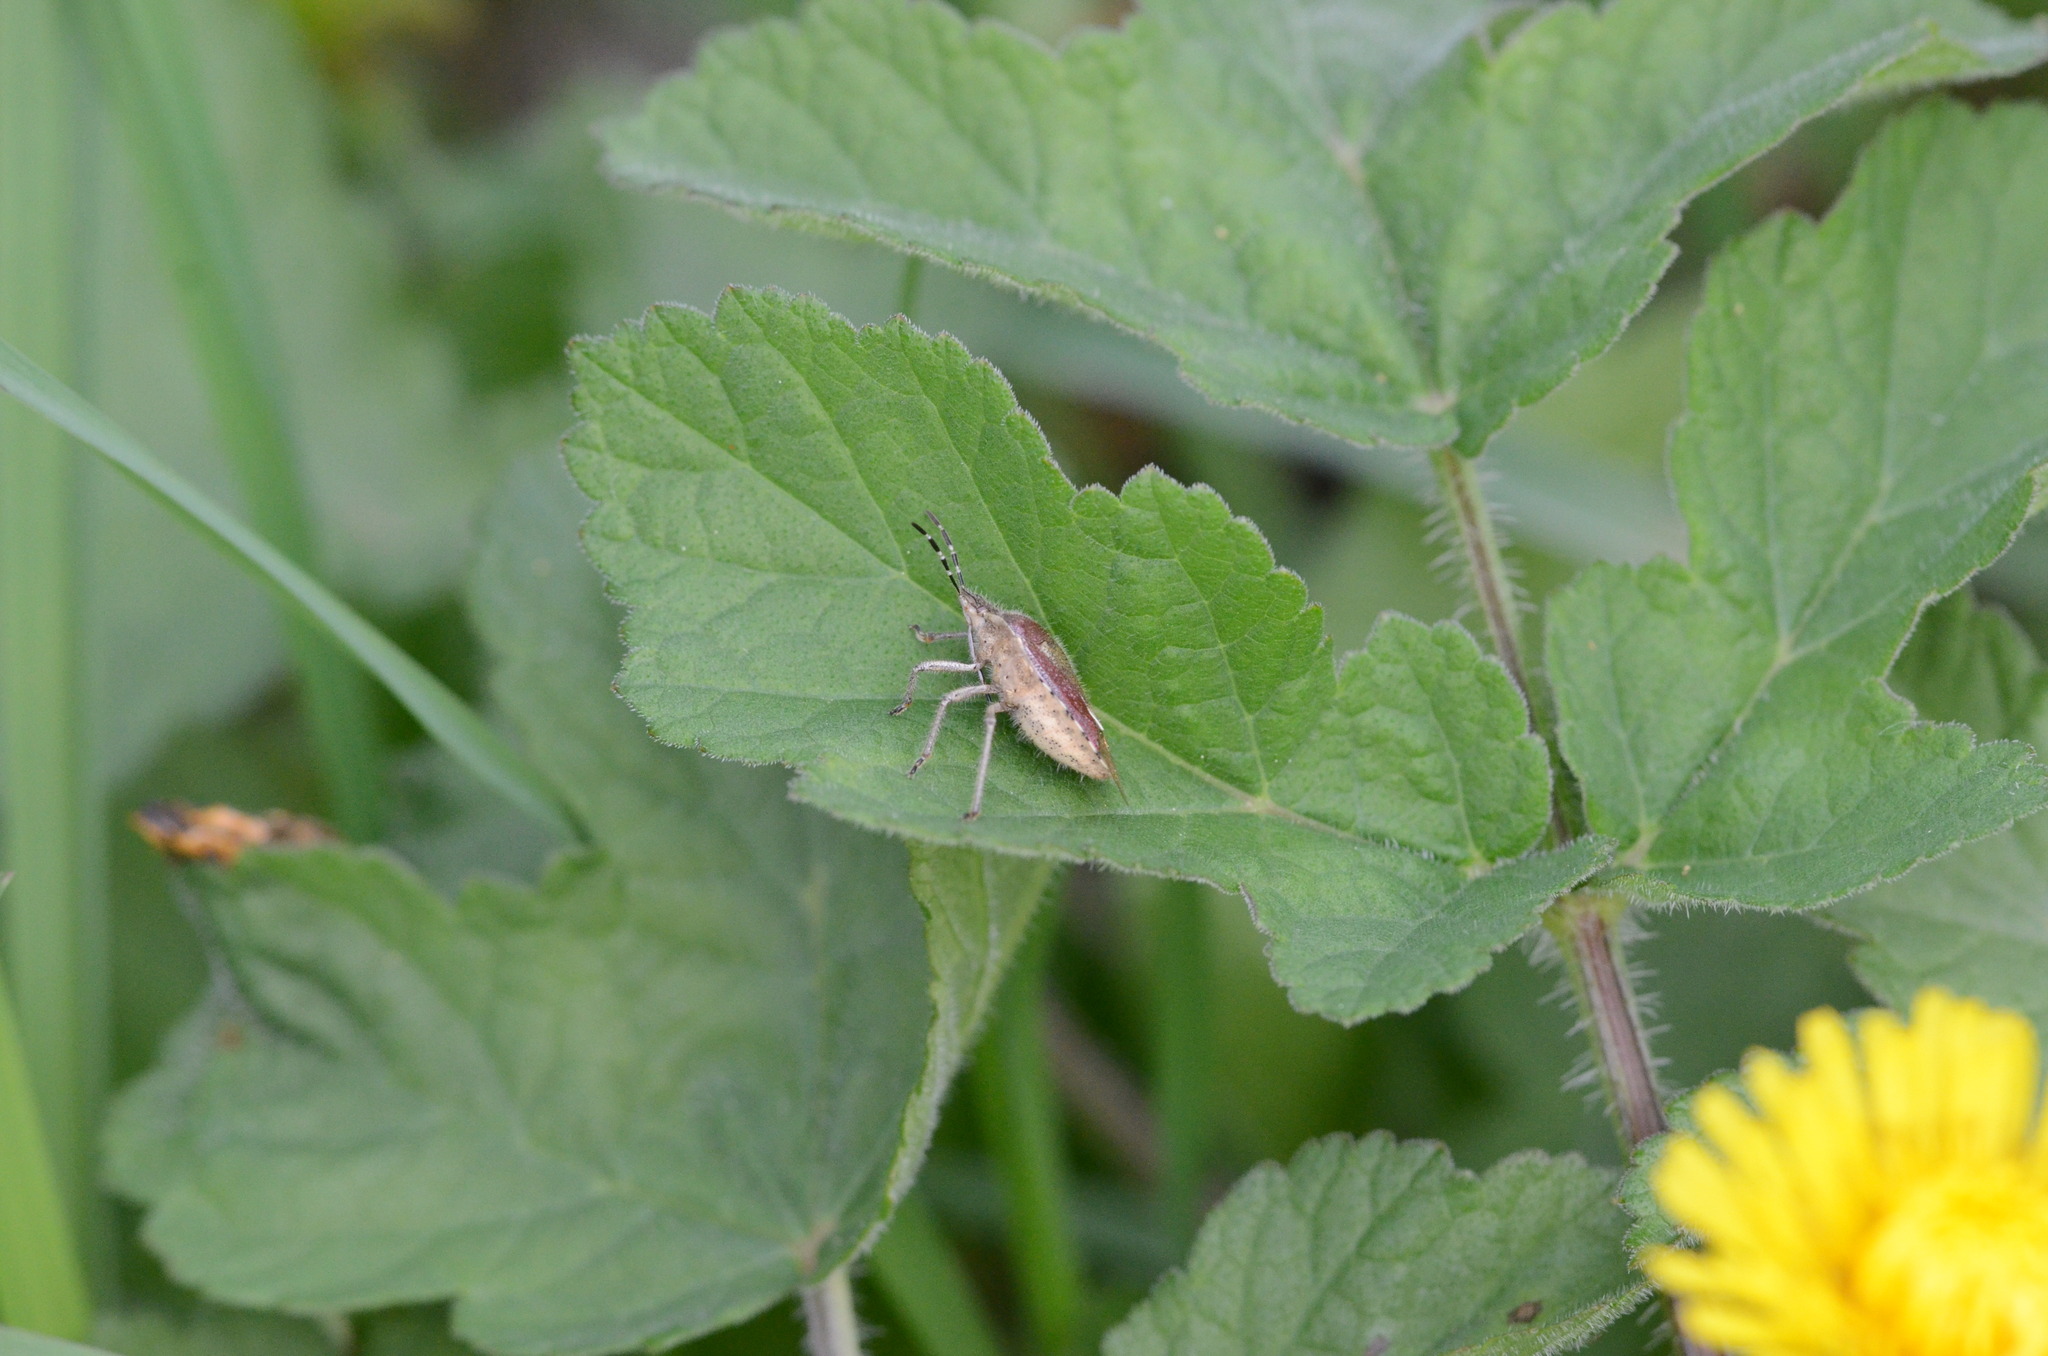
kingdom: Animalia
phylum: Arthropoda
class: Insecta
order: Hemiptera
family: Pentatomidae
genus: Dolycoris
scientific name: Dolycoris baccarum
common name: Sloe bug
